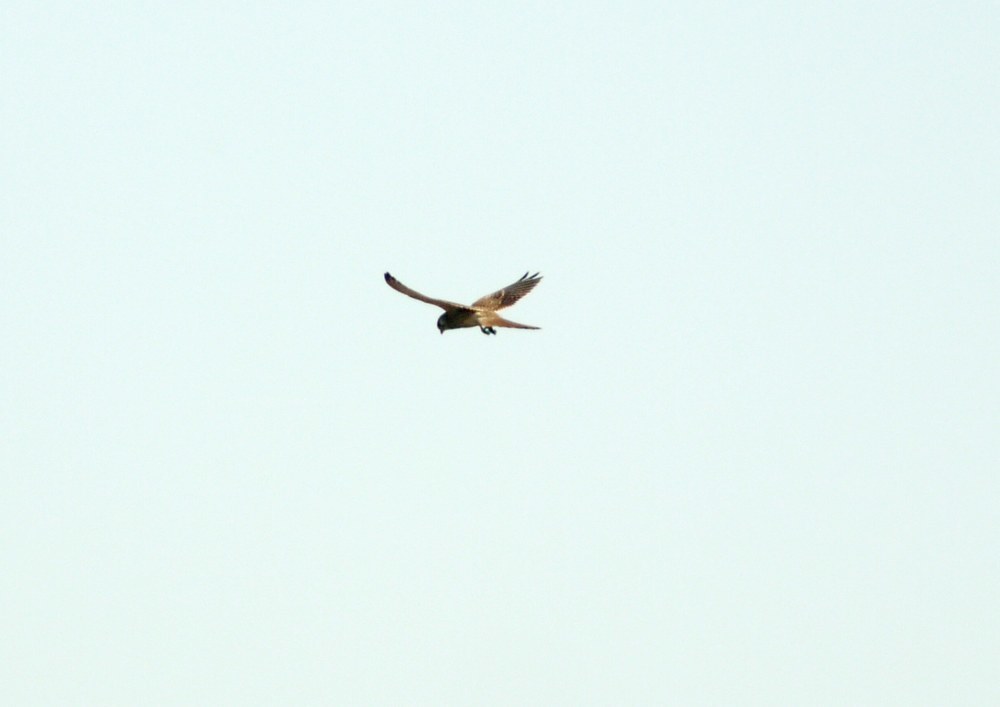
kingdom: Animalia
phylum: Chordata
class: Aves
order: Falconiformes
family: Falconidae
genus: Falco
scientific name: Falco tinnunculus
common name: Common kestrel
